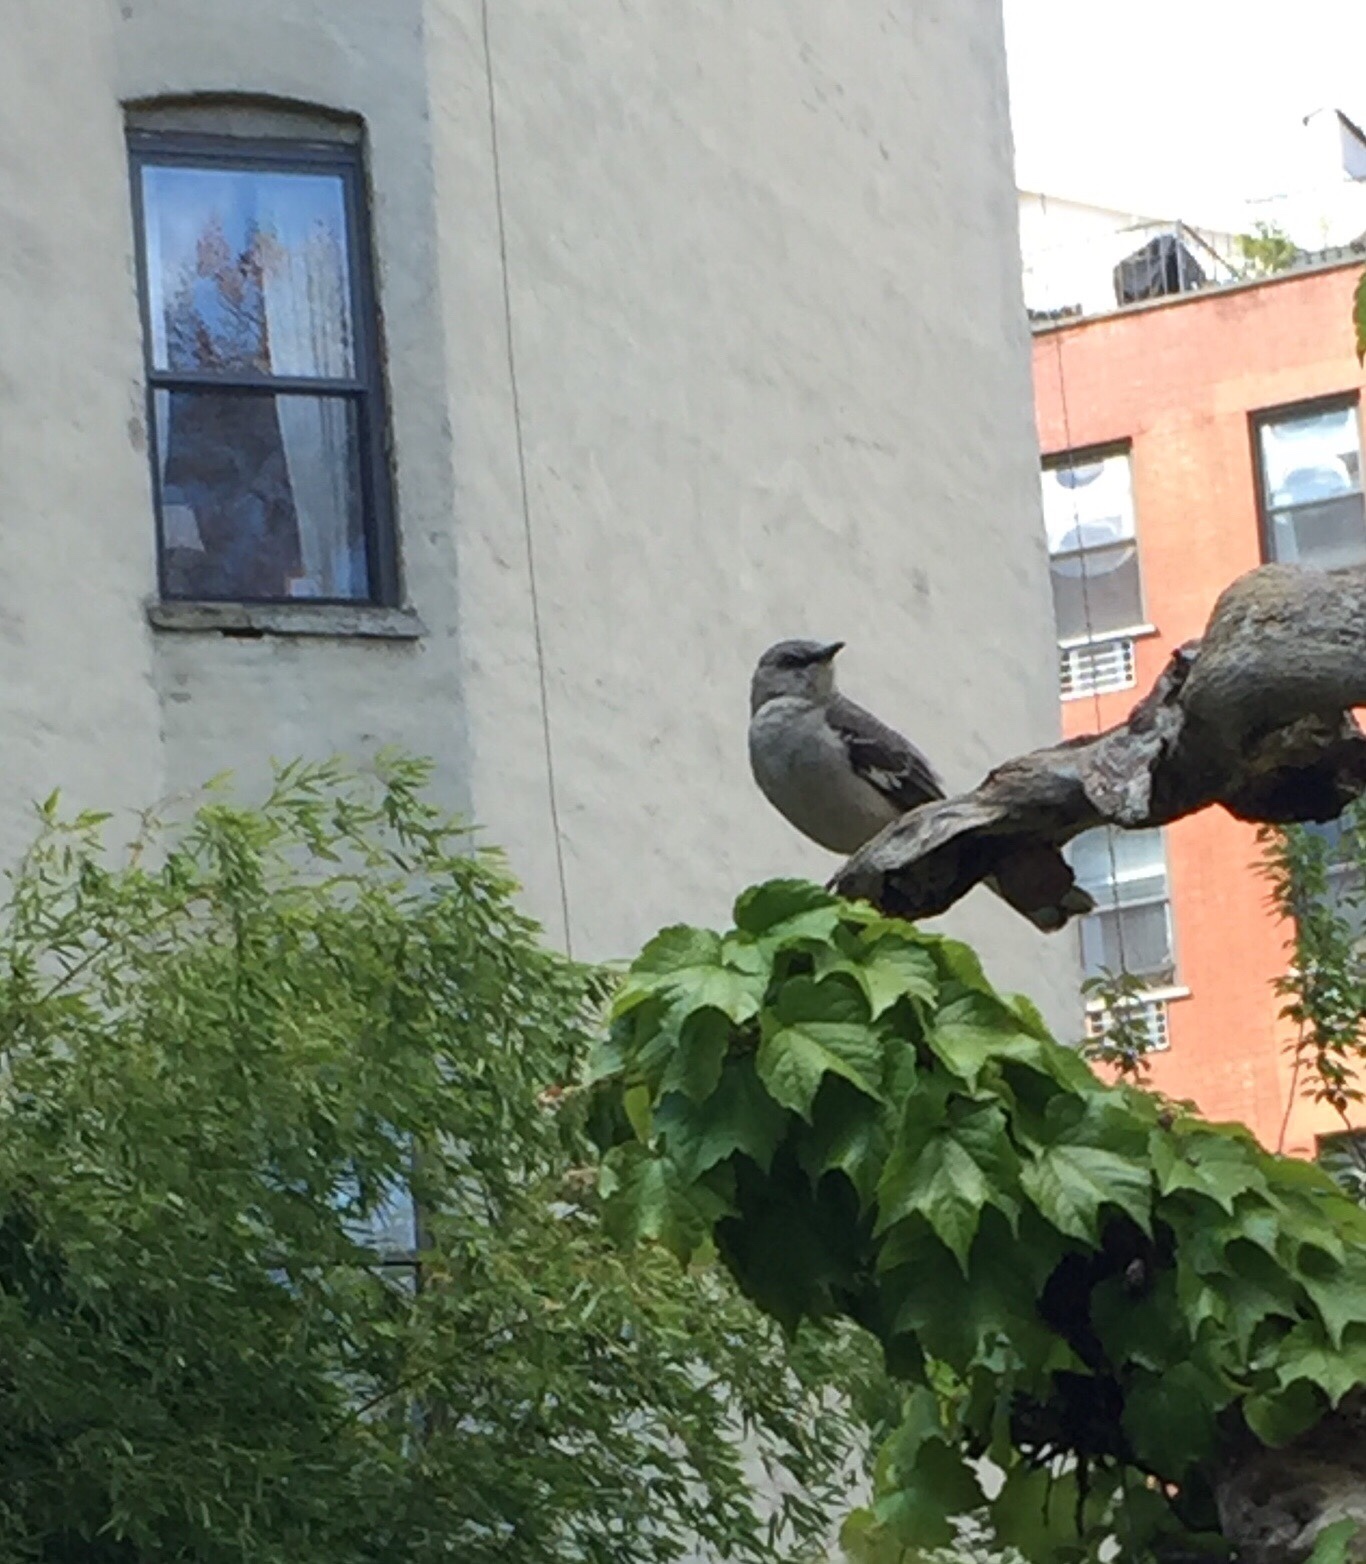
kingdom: Animalia
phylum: Chordata
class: Aves
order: Passeriformes
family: Mimidae
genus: Mimus
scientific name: Mimus polyglottos
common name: Northern mockingbird
